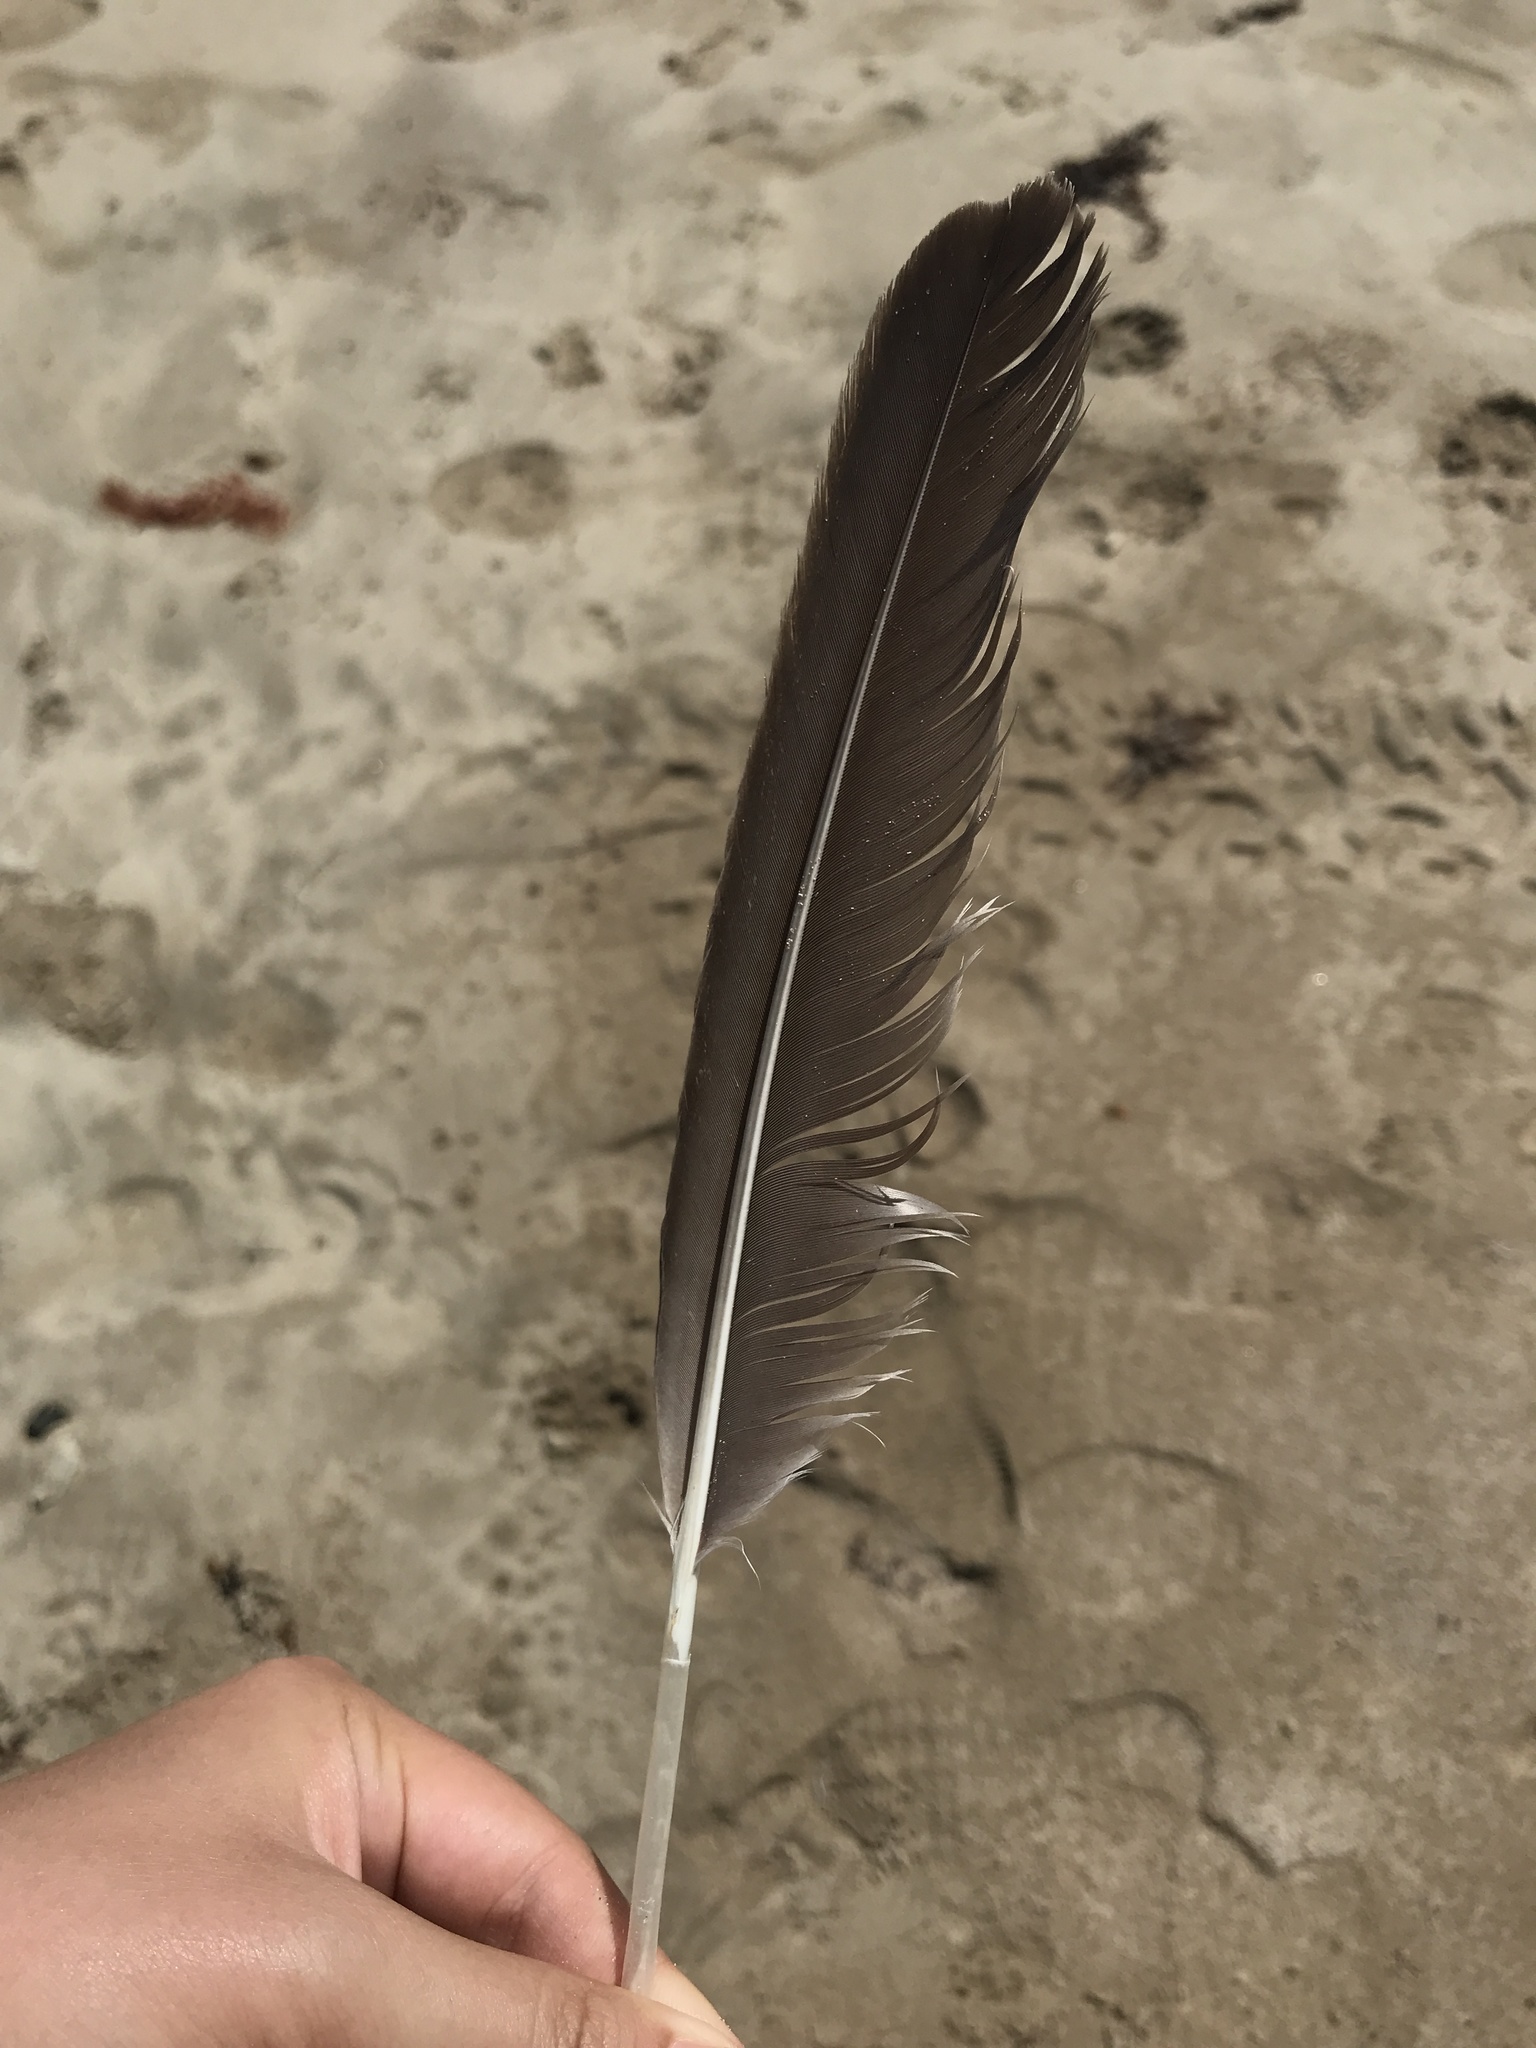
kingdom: Animalia
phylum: Chordata
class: Aves
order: Pelecaniformes
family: Pelecanidae
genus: Pelecanus
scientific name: Pelecanus occidentalis
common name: Brown pelican
